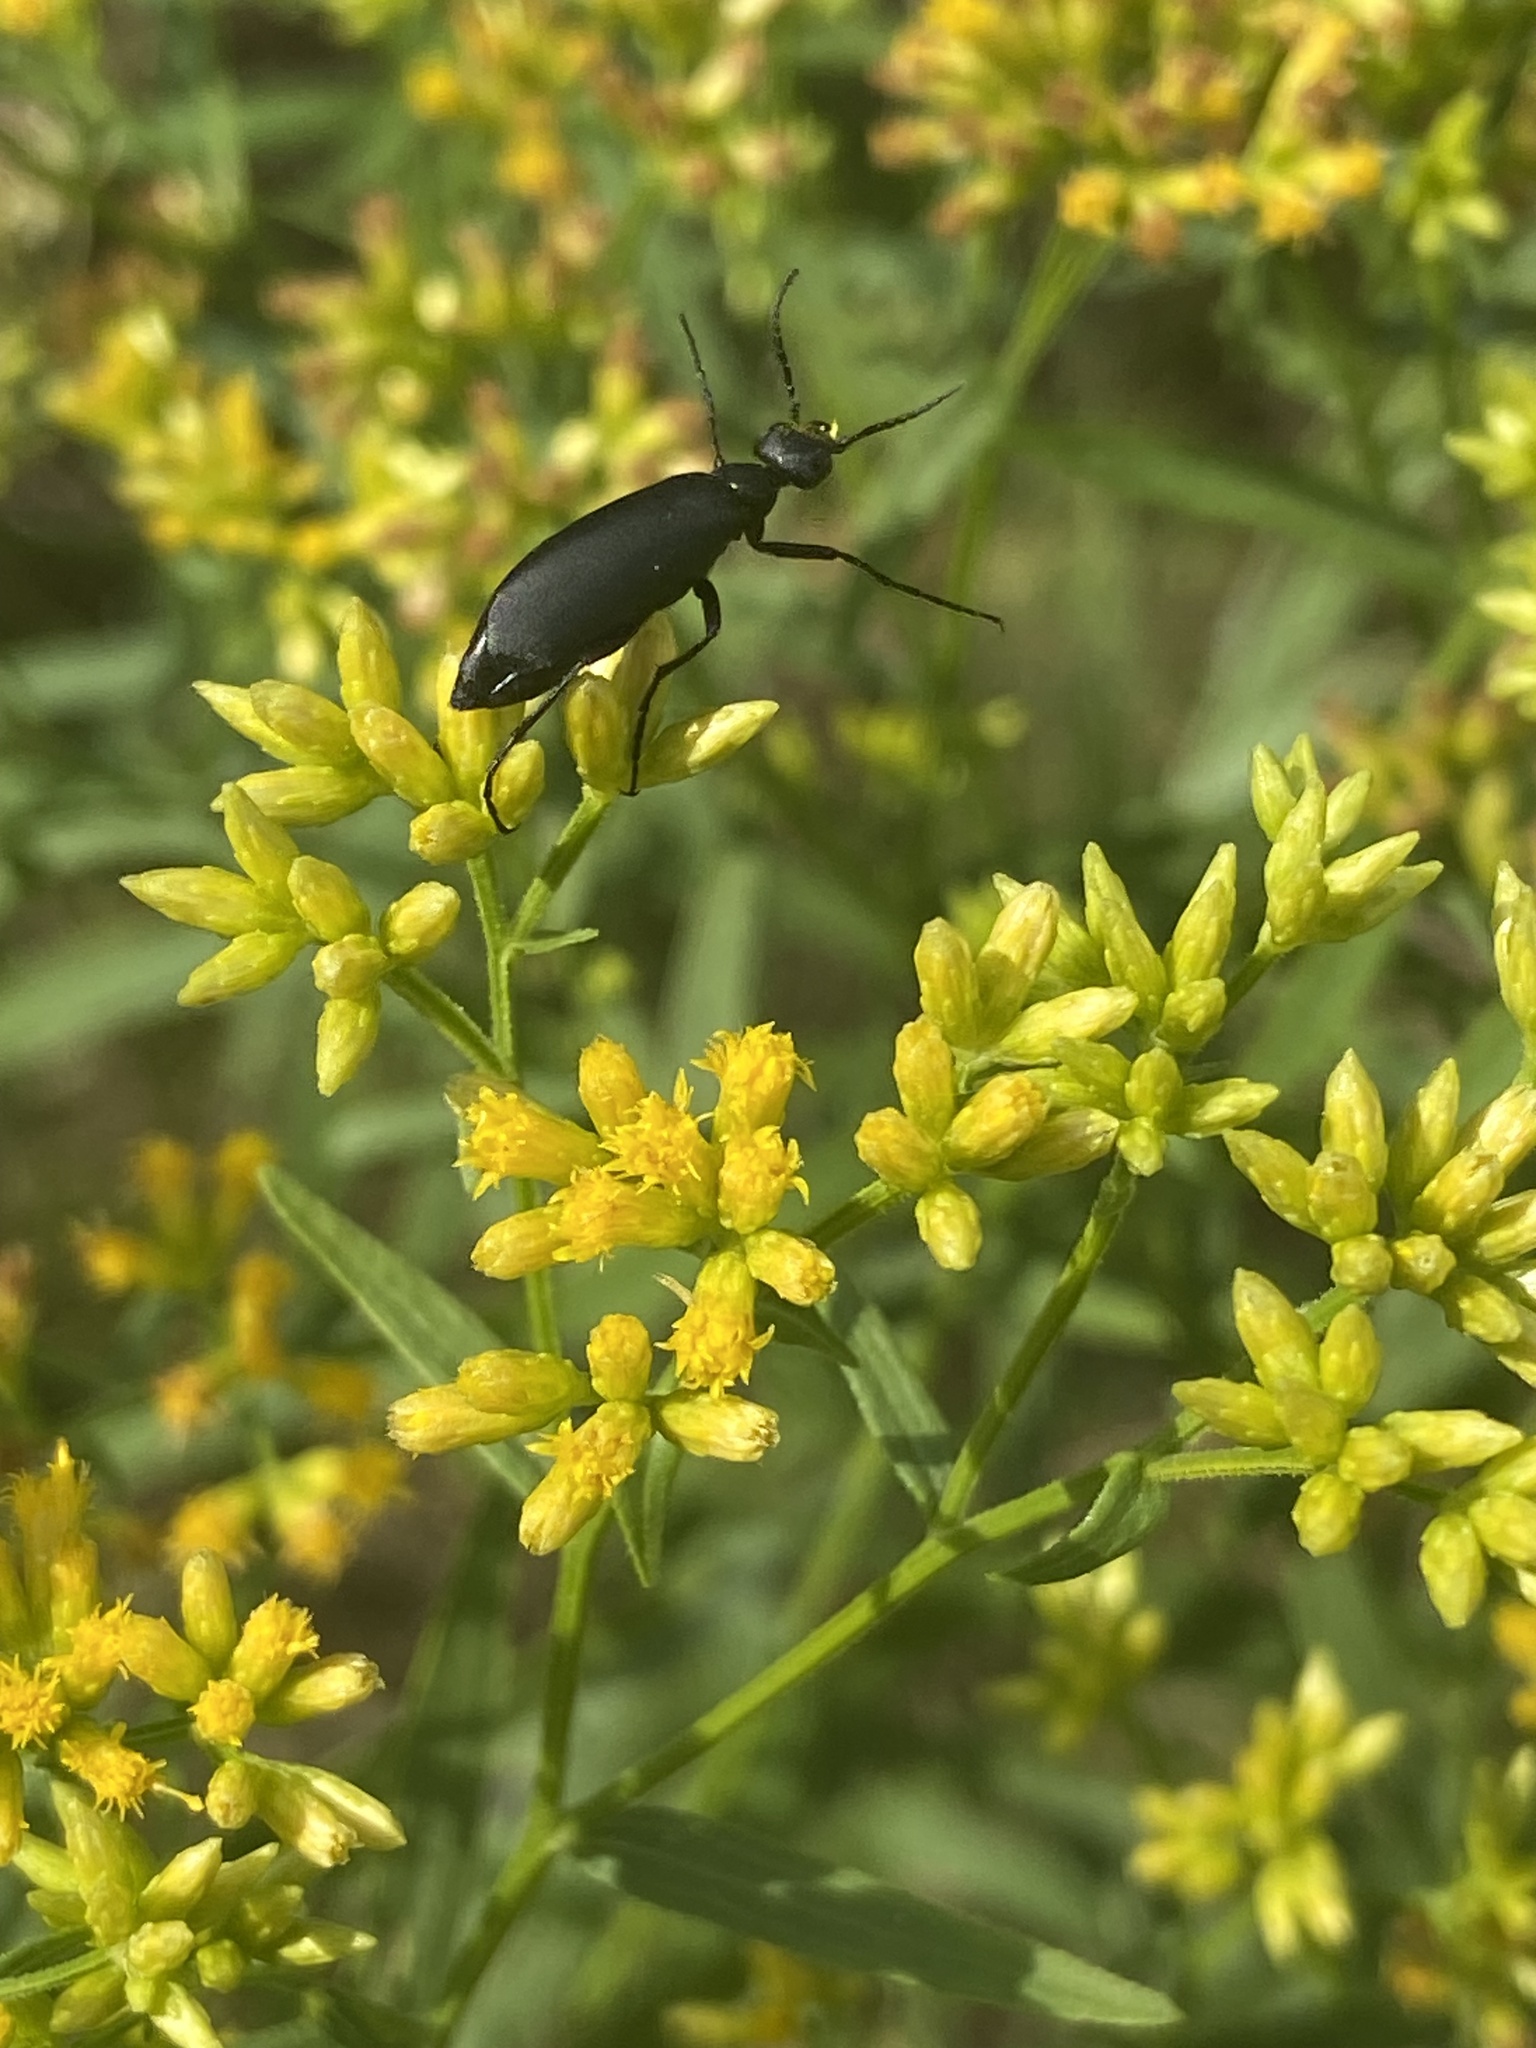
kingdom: Animalia
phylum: Arthropoda
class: Insecta
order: Coleoptera
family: Meloidae
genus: Epicauta
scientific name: Epicauta pensylvanica
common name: Black blister beetle
